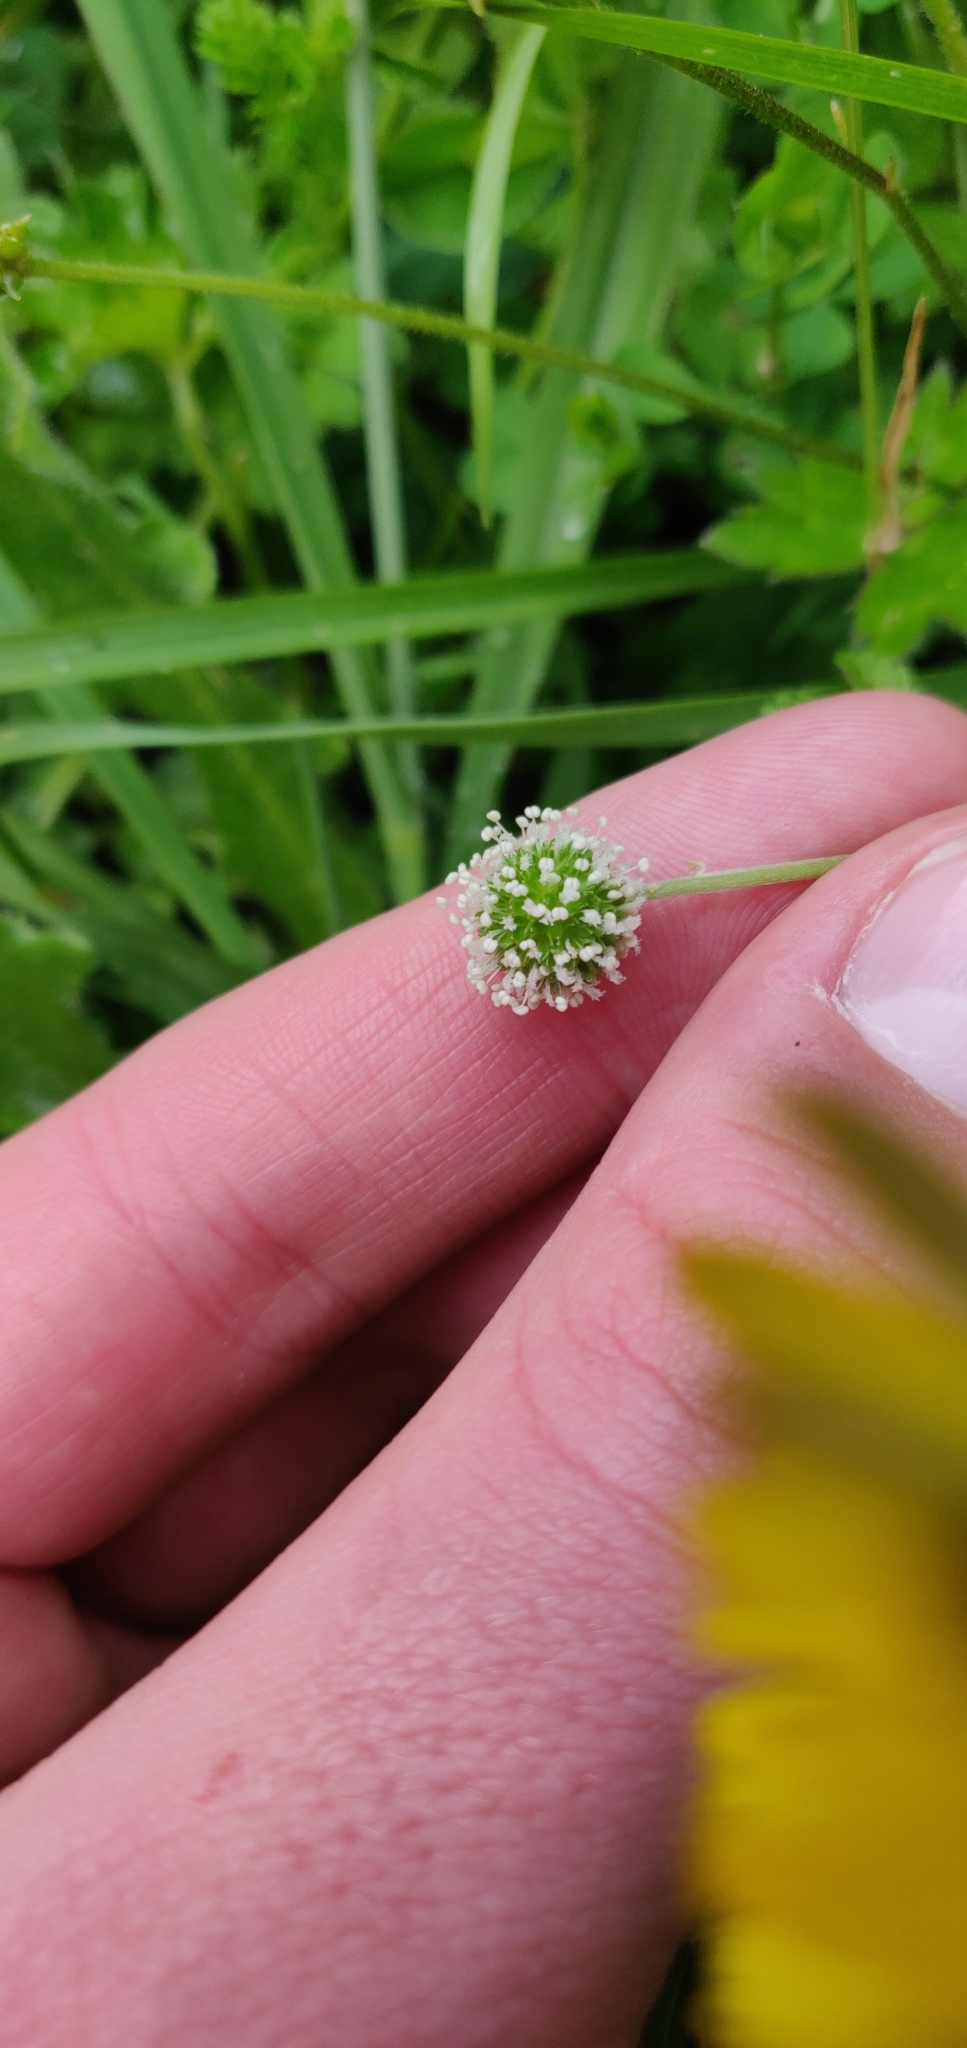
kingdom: Plantae
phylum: Tracheophyta
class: Magnoliopsida
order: Rosales
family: Rosaceae
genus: Acaena
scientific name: Acaena novae-zelandiae
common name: Pirri-pirri-bur
